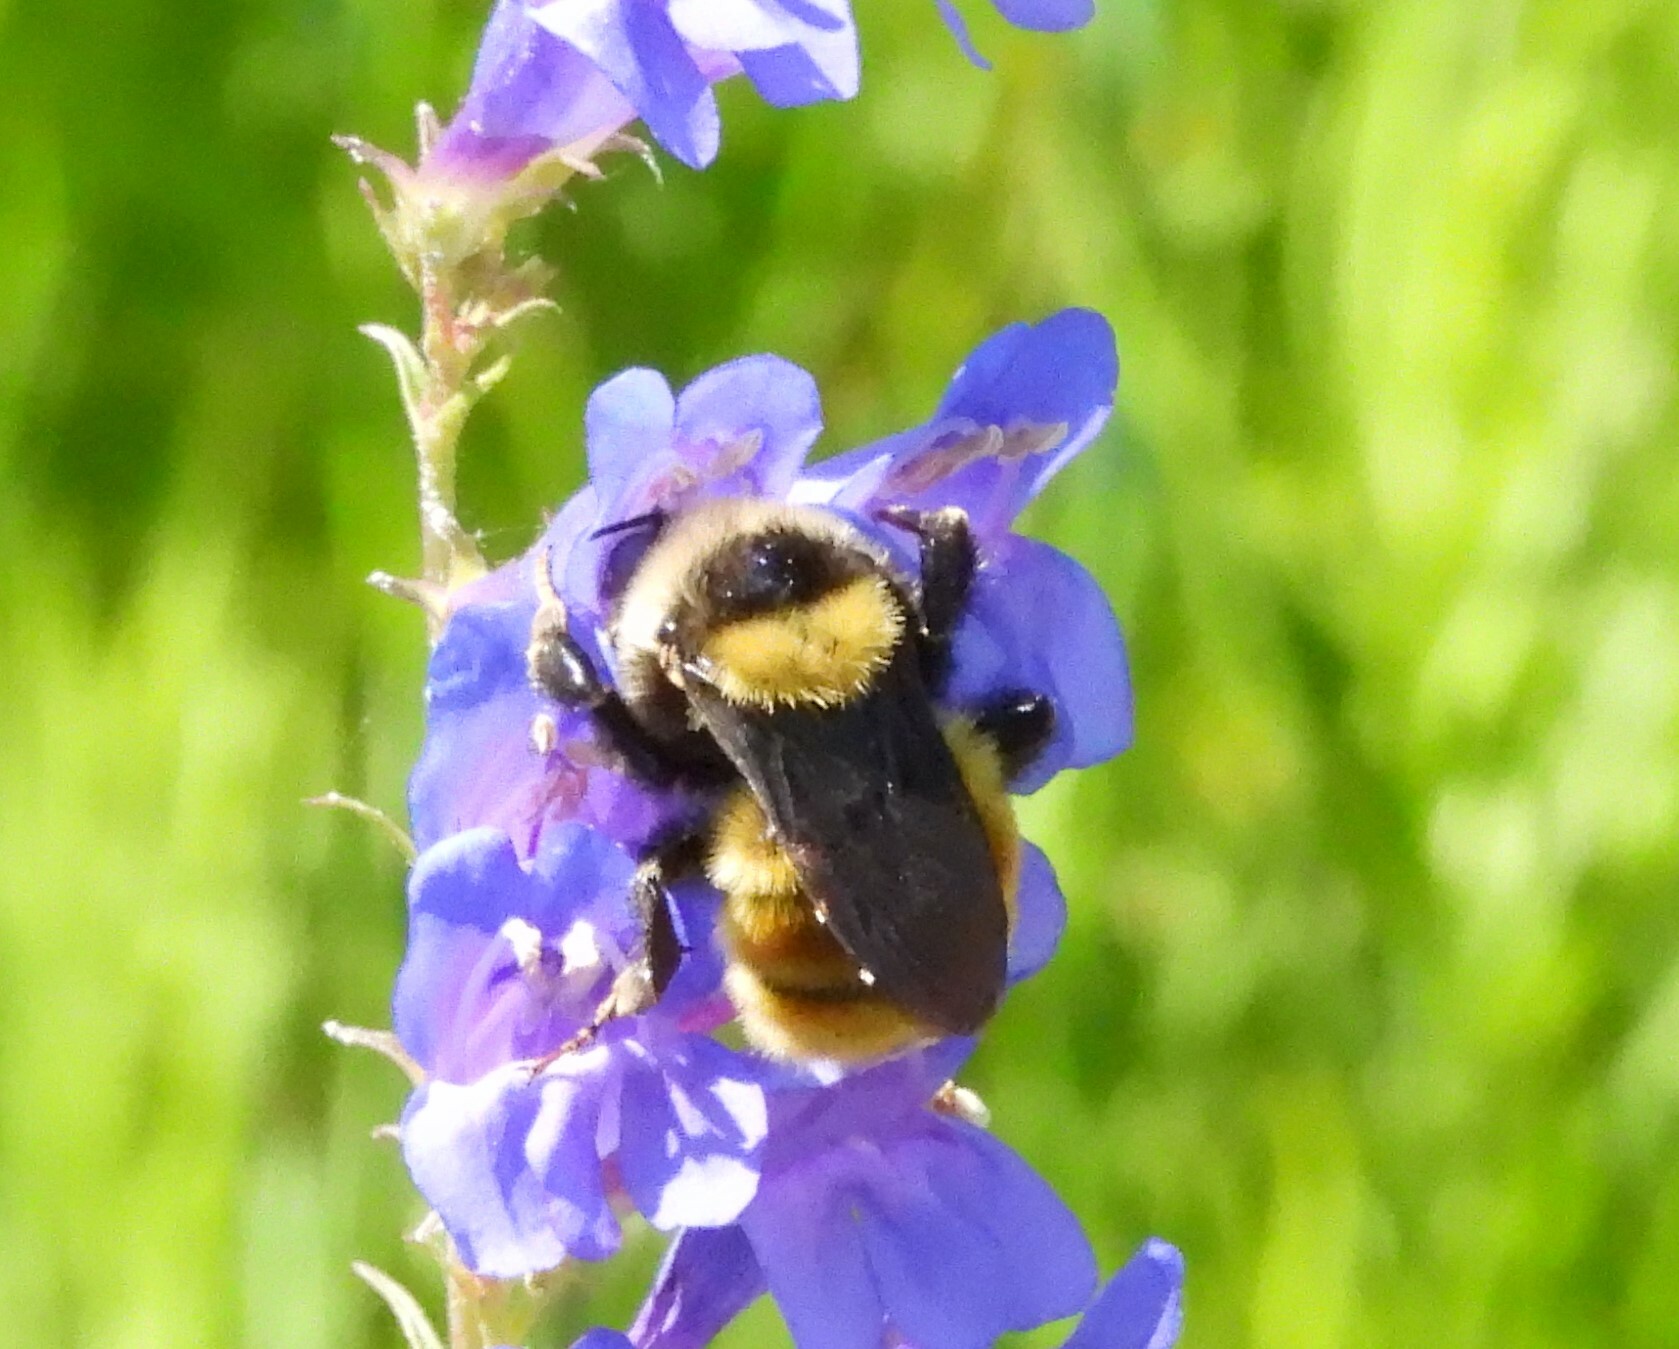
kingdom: Animalia
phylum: Arthropoda
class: Insecta
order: Hymenoptera
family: Apidae
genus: Bombus
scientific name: Bombus appositus
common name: White-shouldered bumble bee
